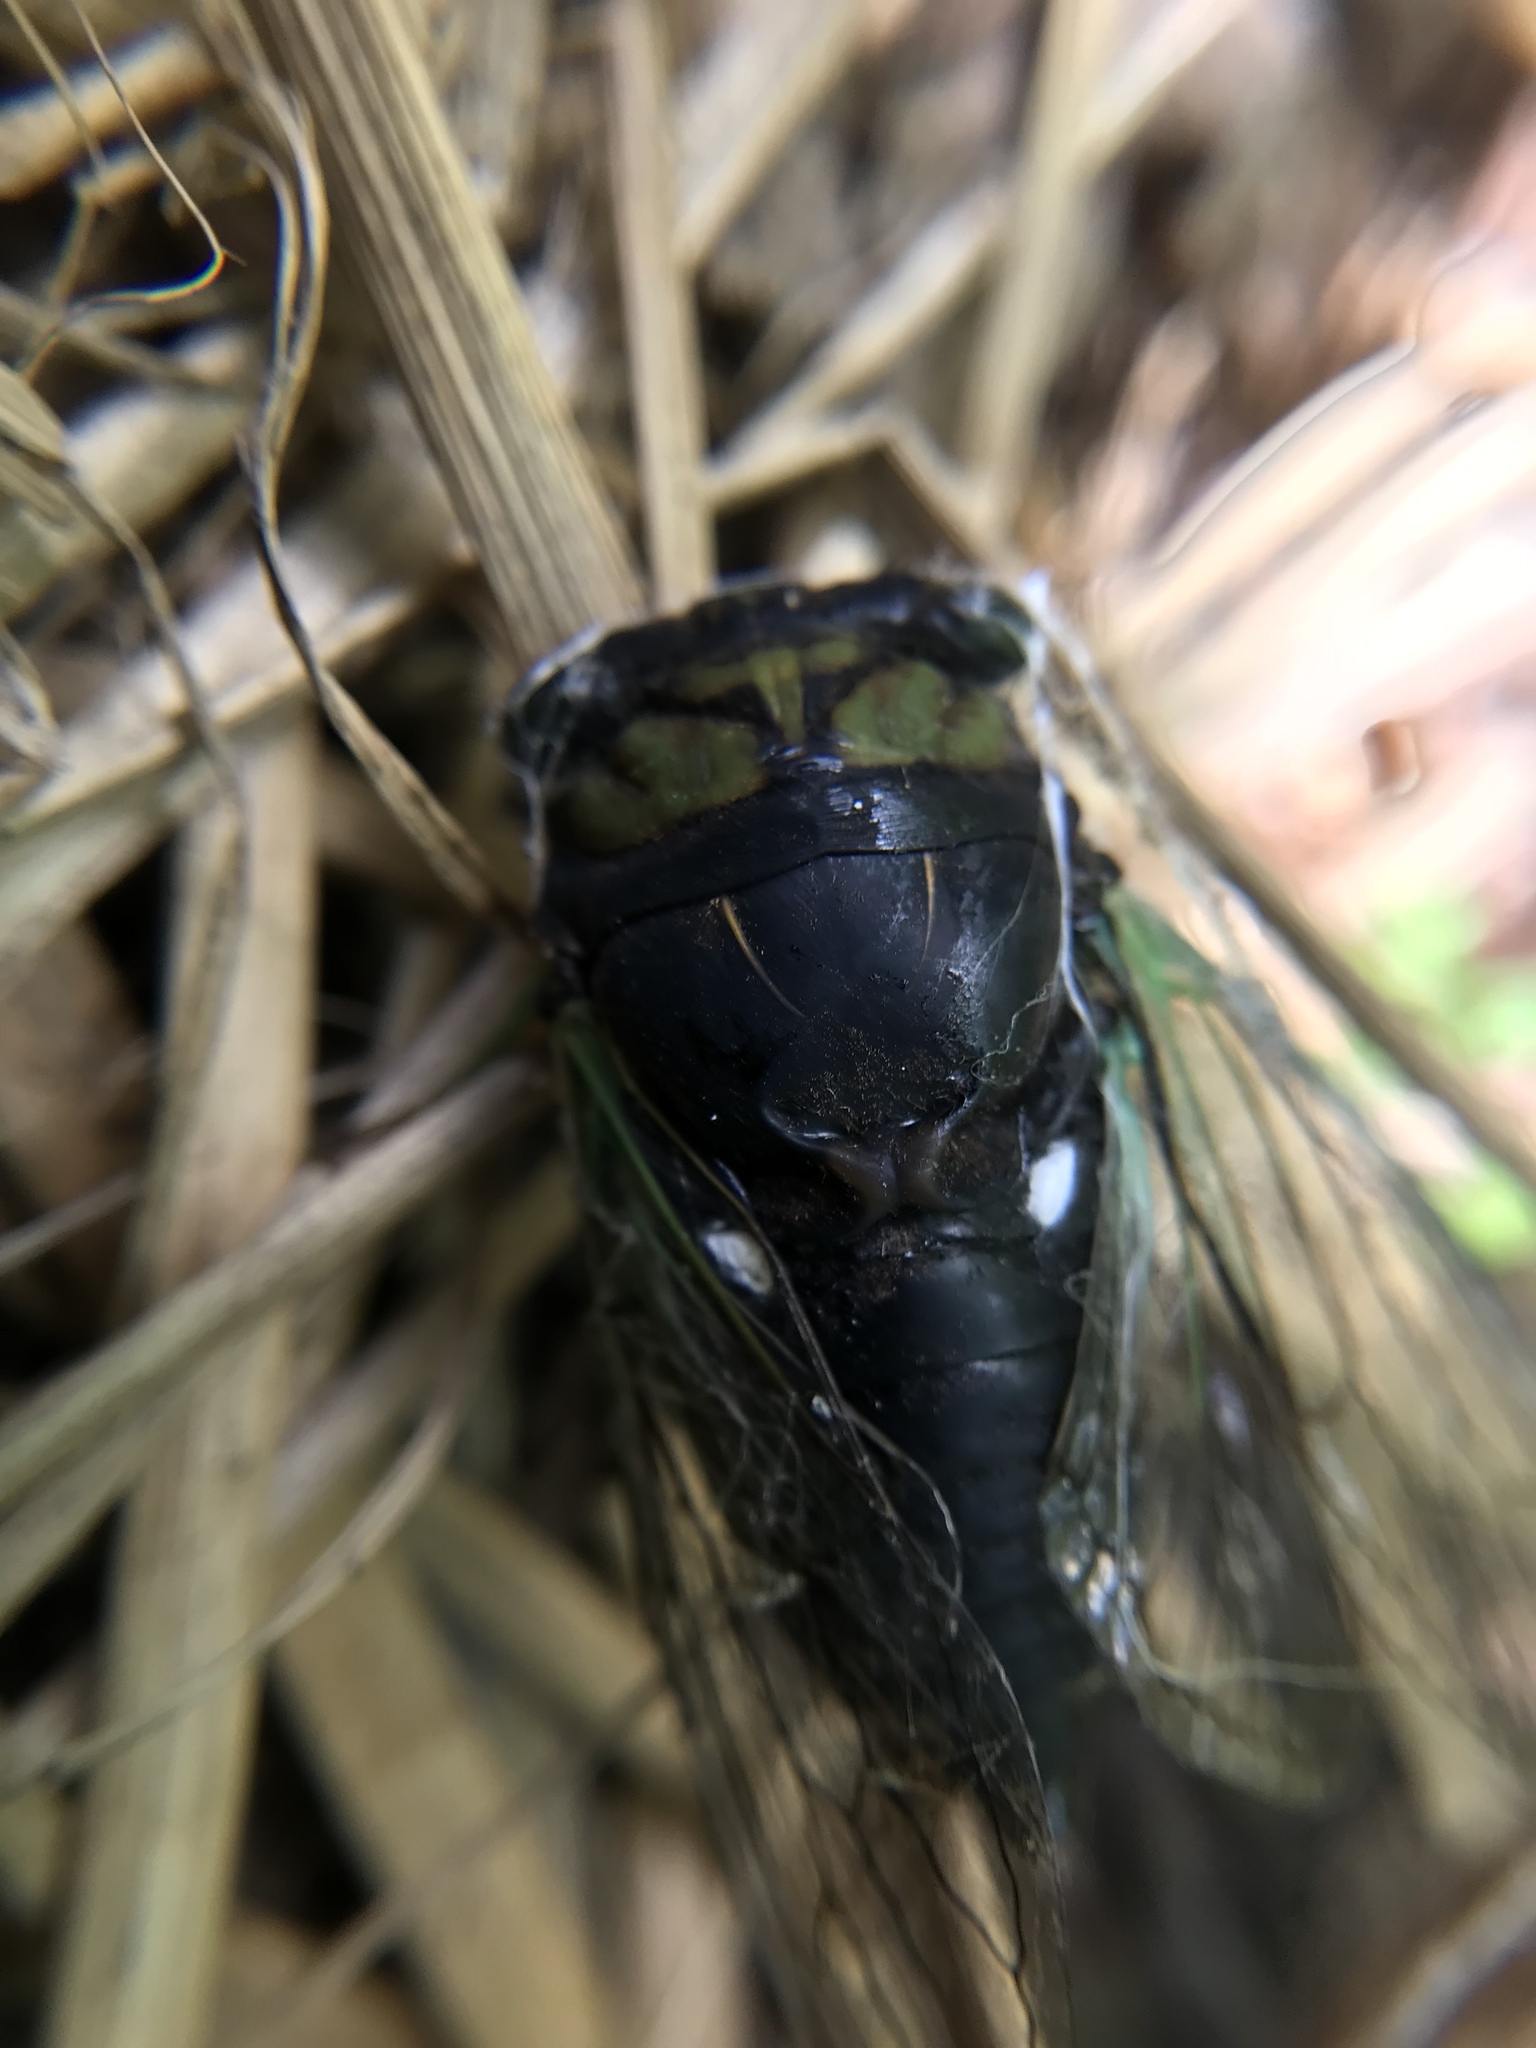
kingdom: Animalia
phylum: Arthropoda
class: Insecta
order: Hemiptera
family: Cicadidae
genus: Neotibicen
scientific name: Neotibicen tibicen
